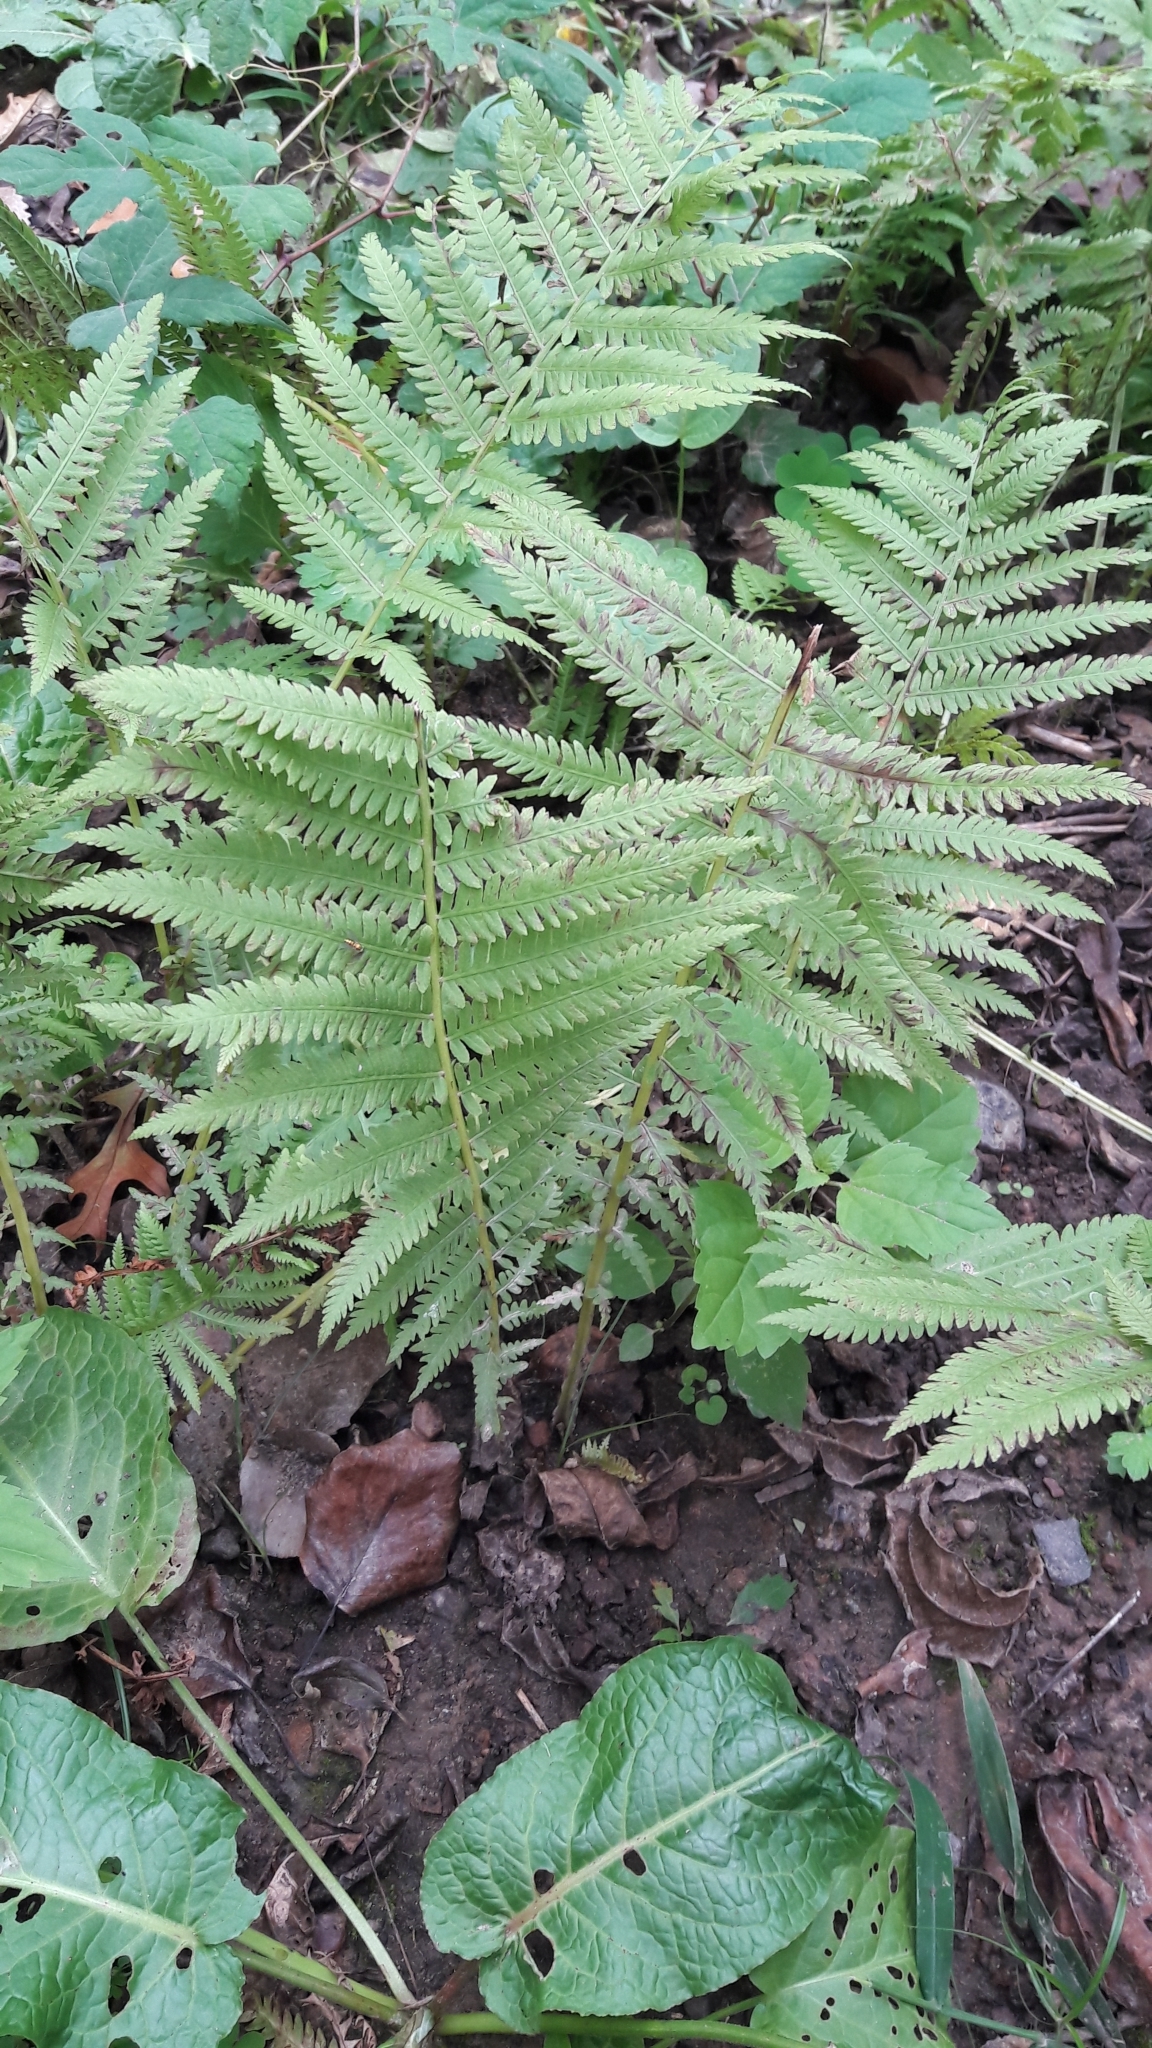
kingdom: Plantae
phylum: Tracheophyta
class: Polypodiopsida
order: Polypodiales
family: Thelypteridaceae
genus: Amauropelta
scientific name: Amauropelta noveboracensis
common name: New york fern
